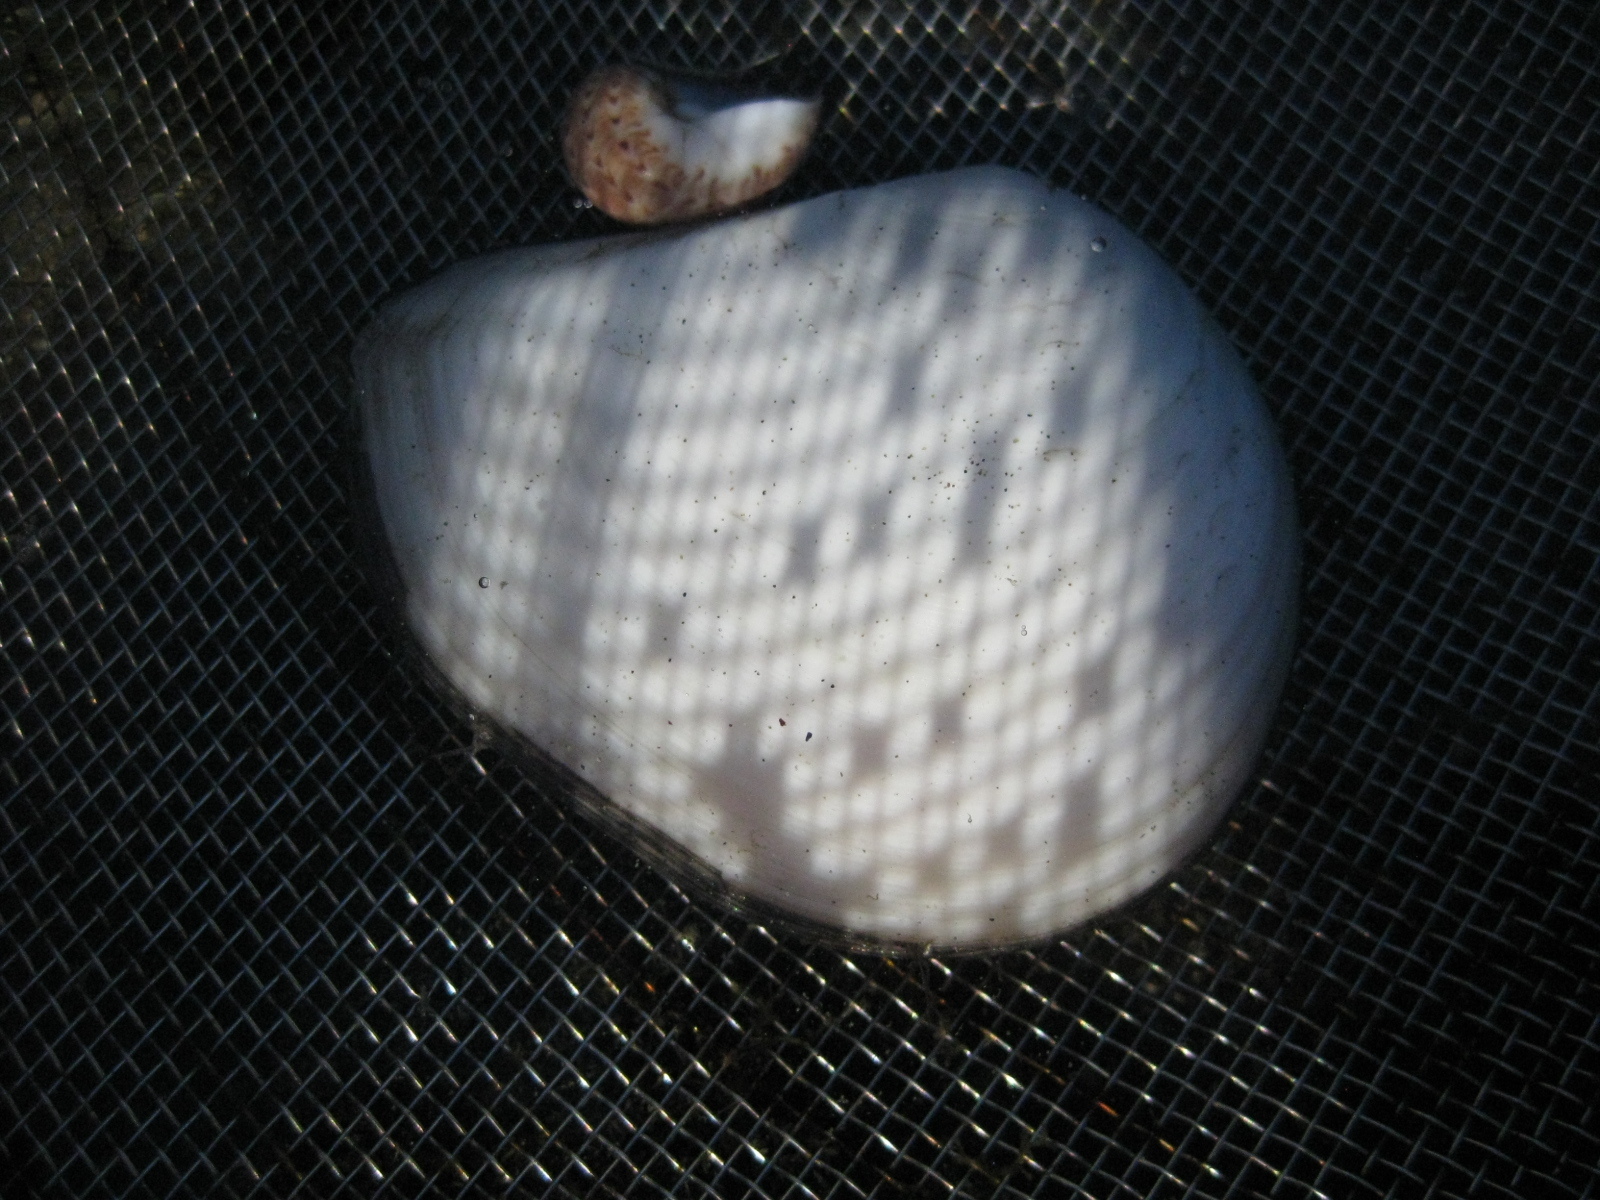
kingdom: Animalia
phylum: Mollusca
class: Bivalvia
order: Cardiida
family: Tellinidae
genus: Macomona
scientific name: Macomona liliana
